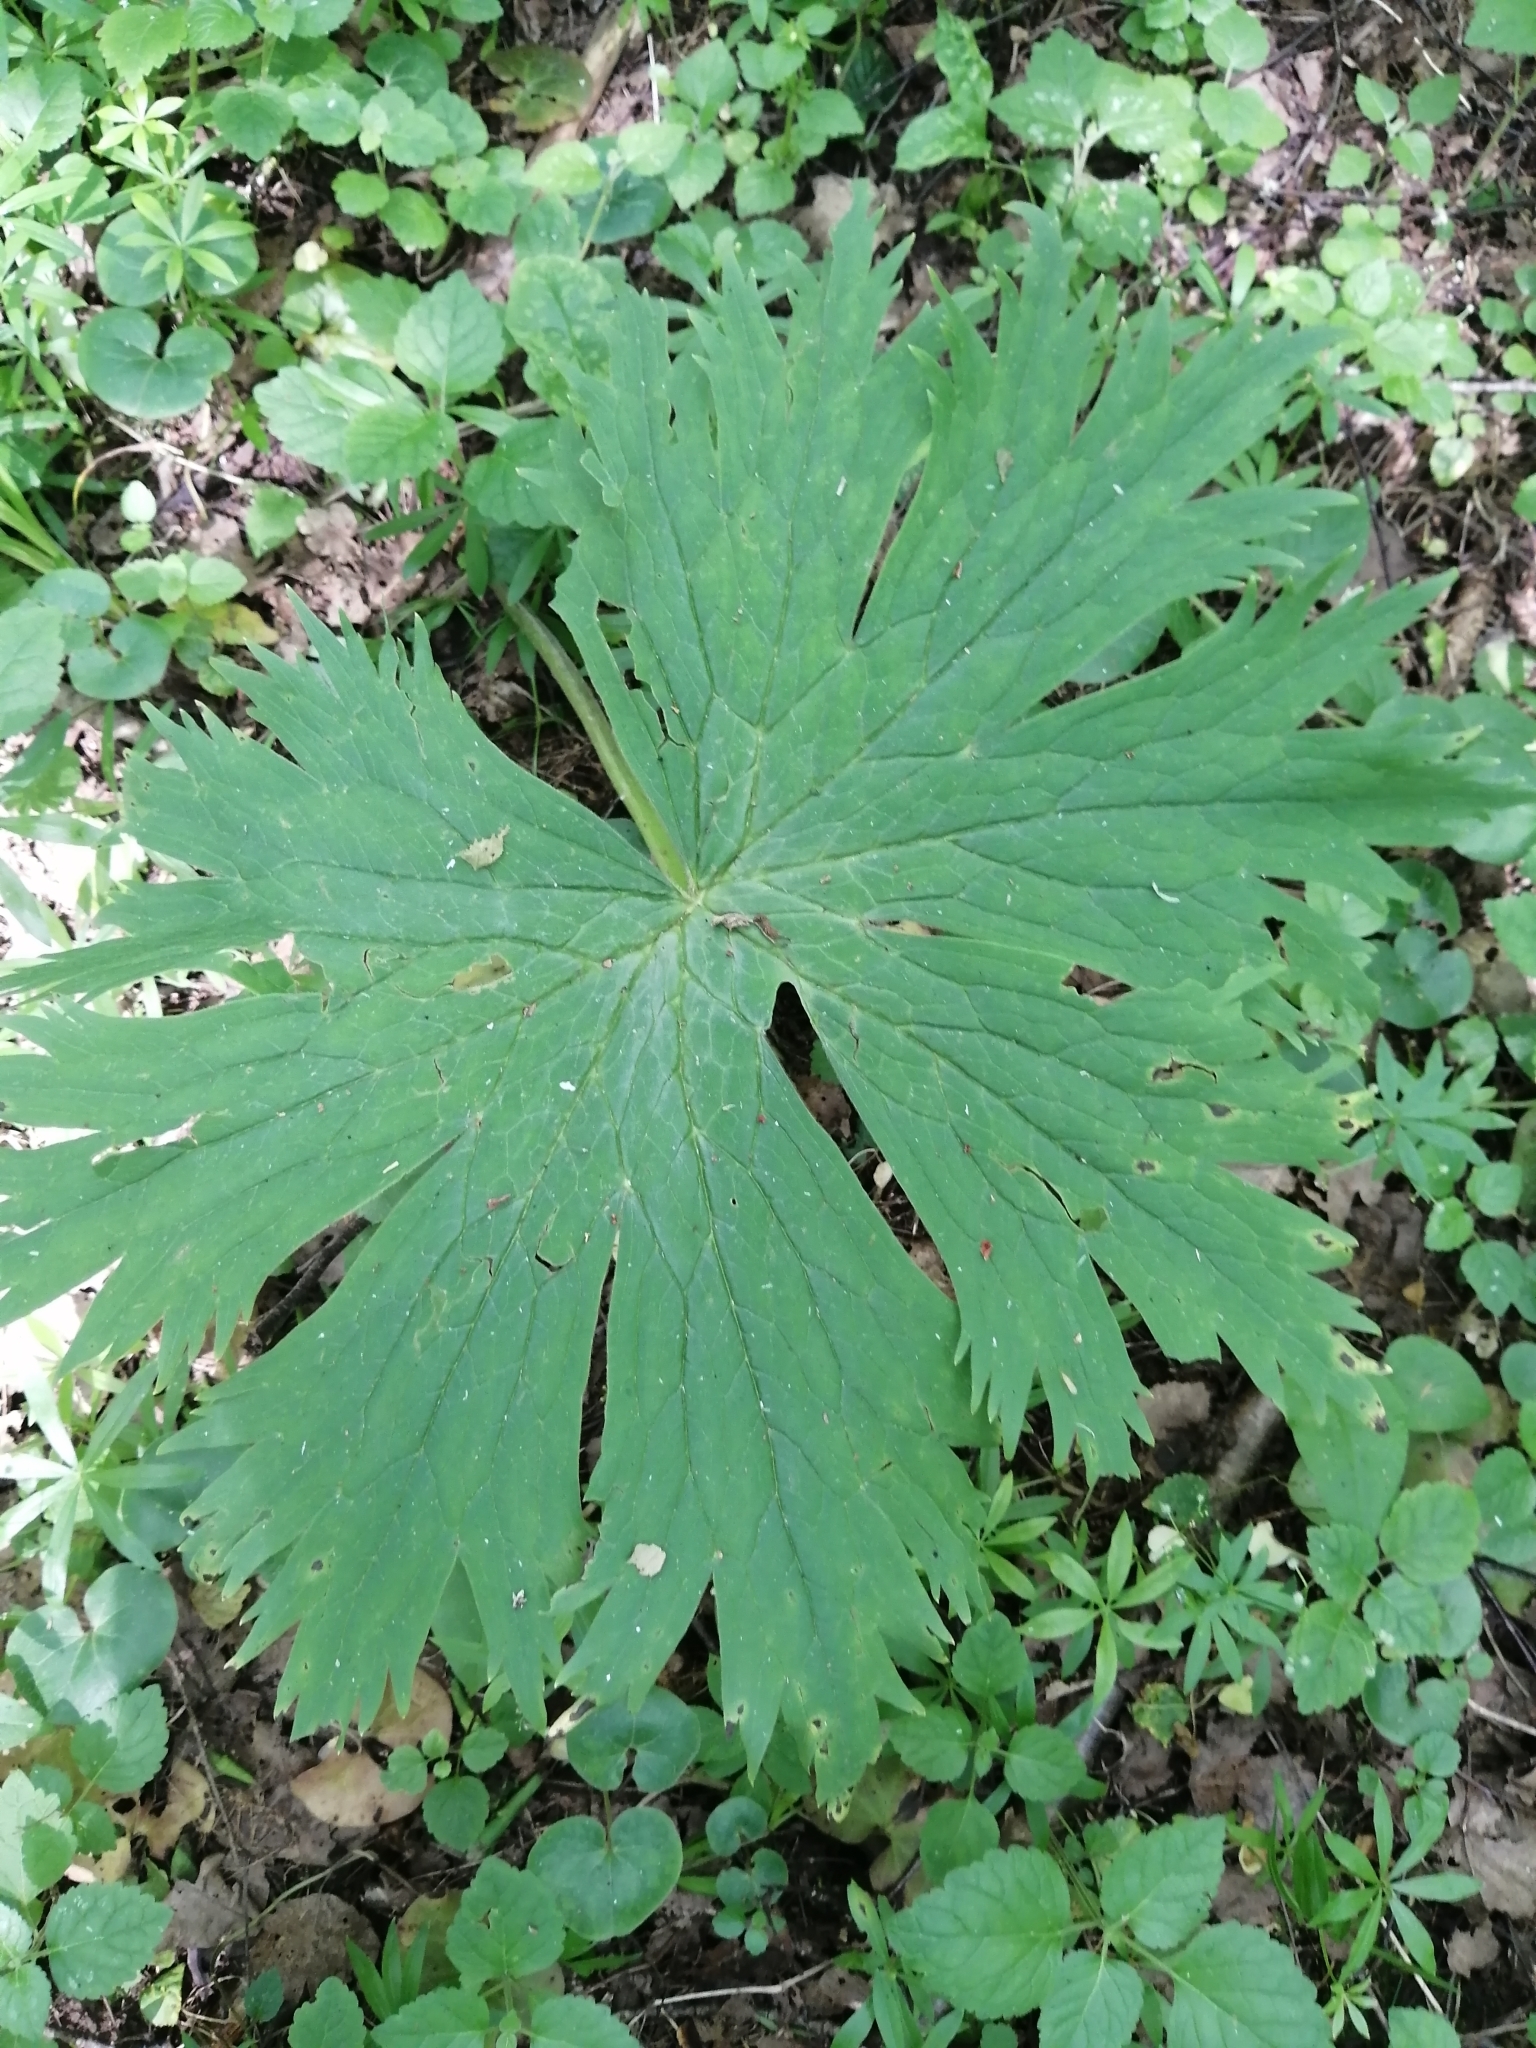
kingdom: Plantae
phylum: Tracheophyta
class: Magnoliopsida
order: Ranunculales
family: Ranunculaceae
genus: Aconitum
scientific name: Aconitum septentrionale
